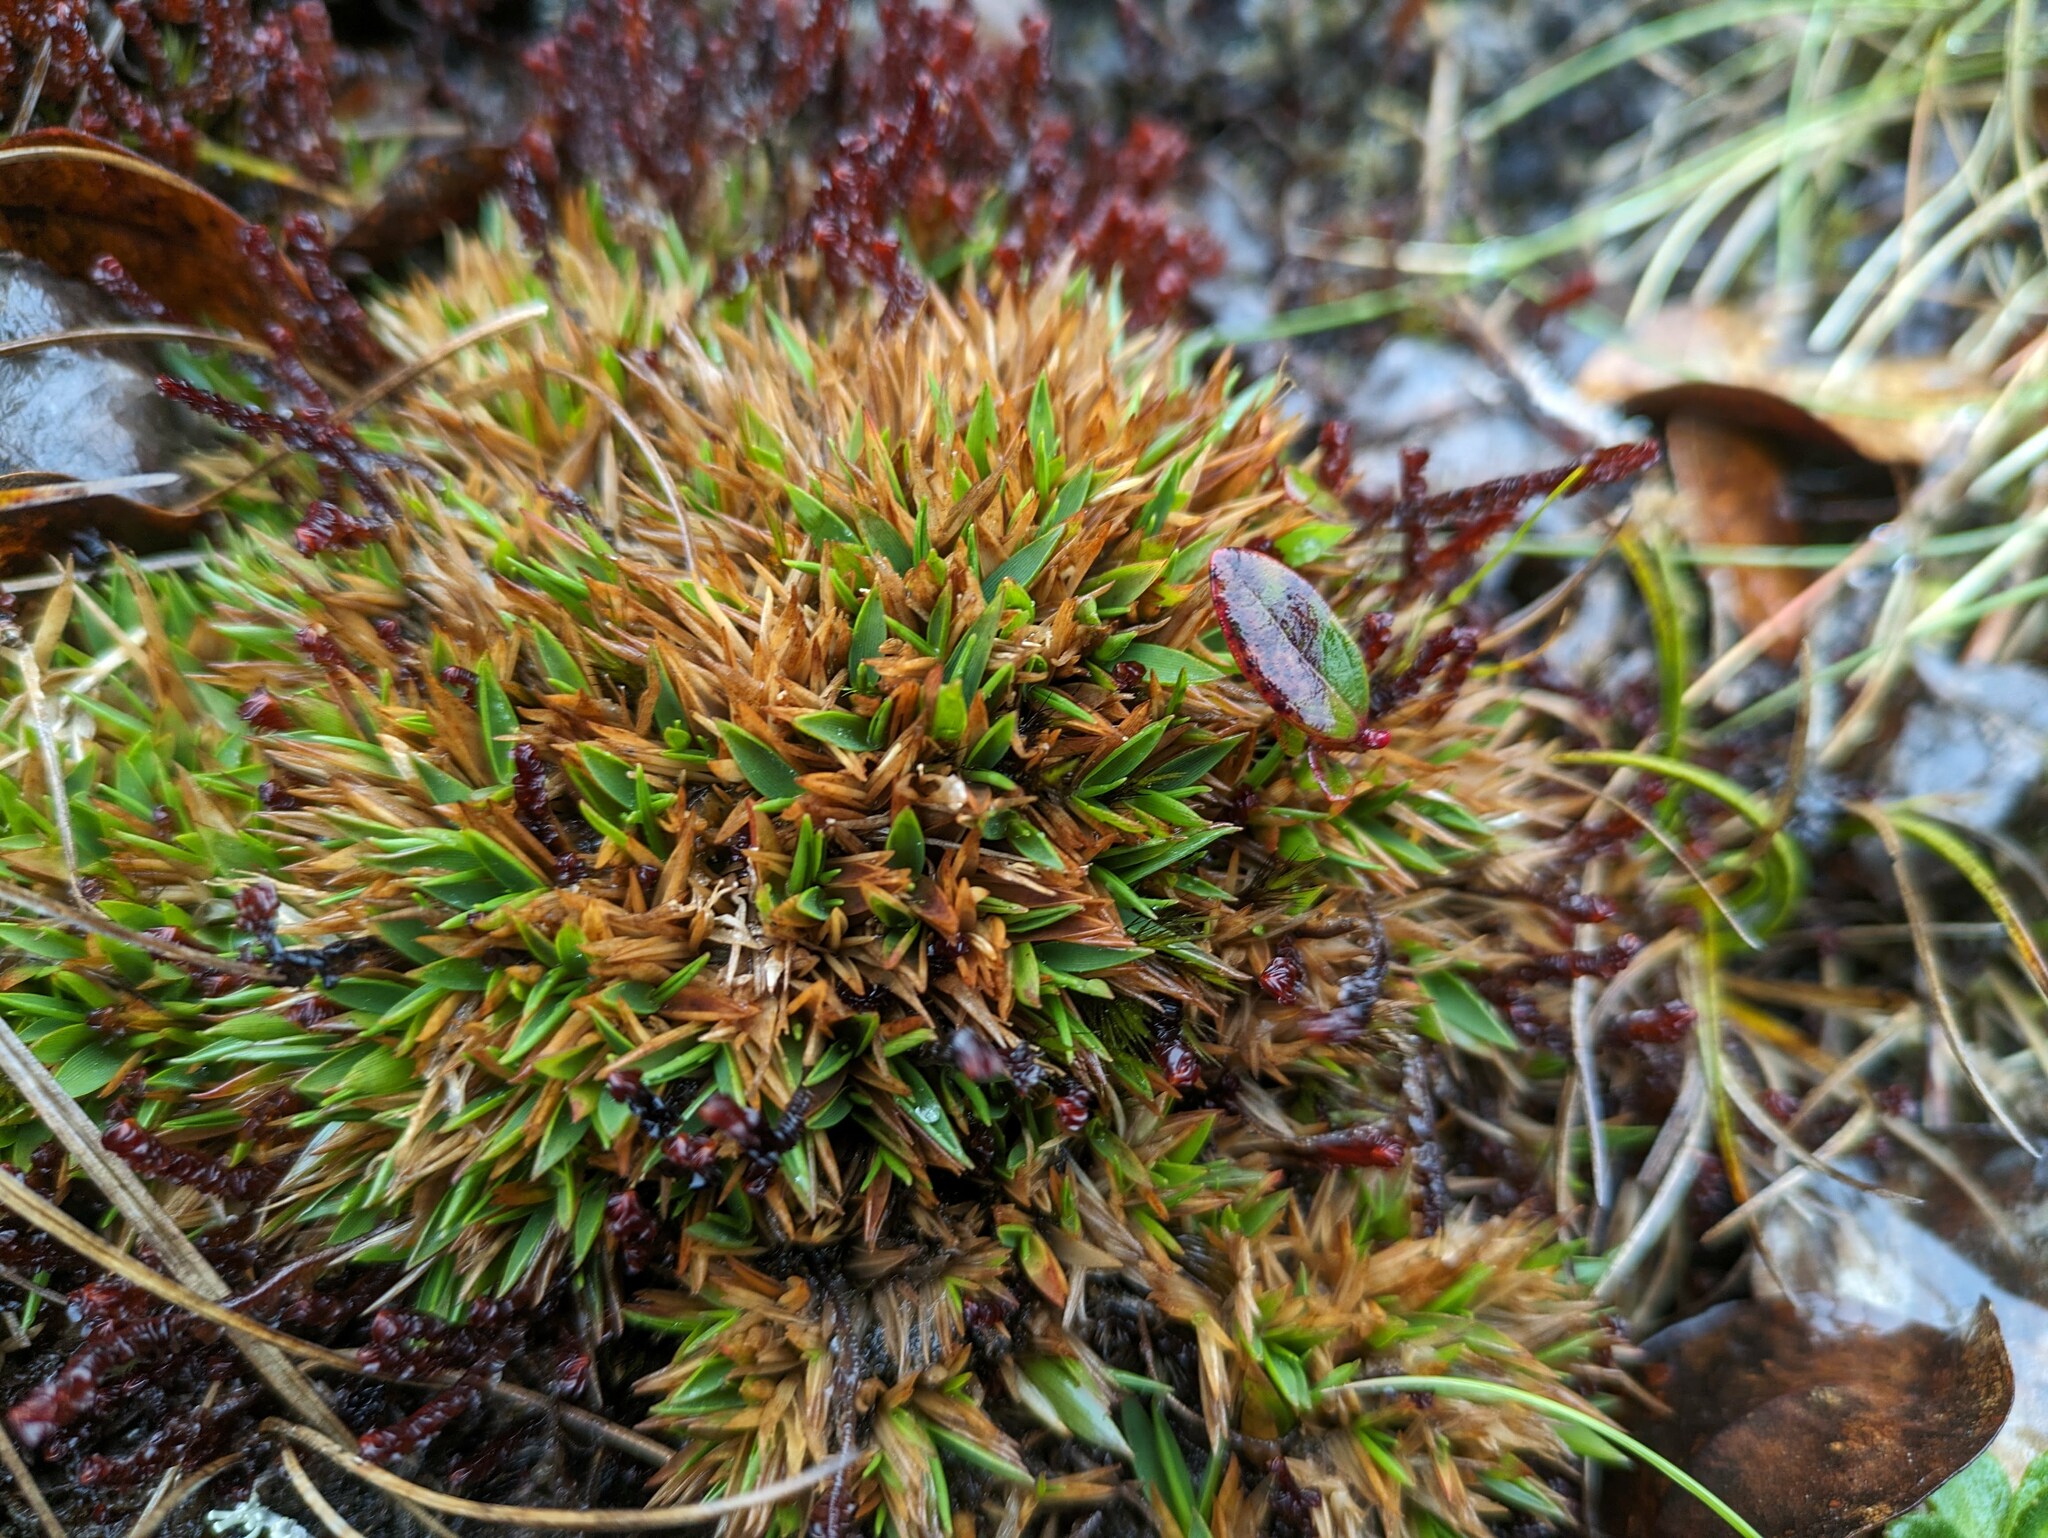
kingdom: Plantae
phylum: Tracheophyta
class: Liliopsida
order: Poales
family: Poaceae
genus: Dichanthelium
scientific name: Dichanthelium cynodon
